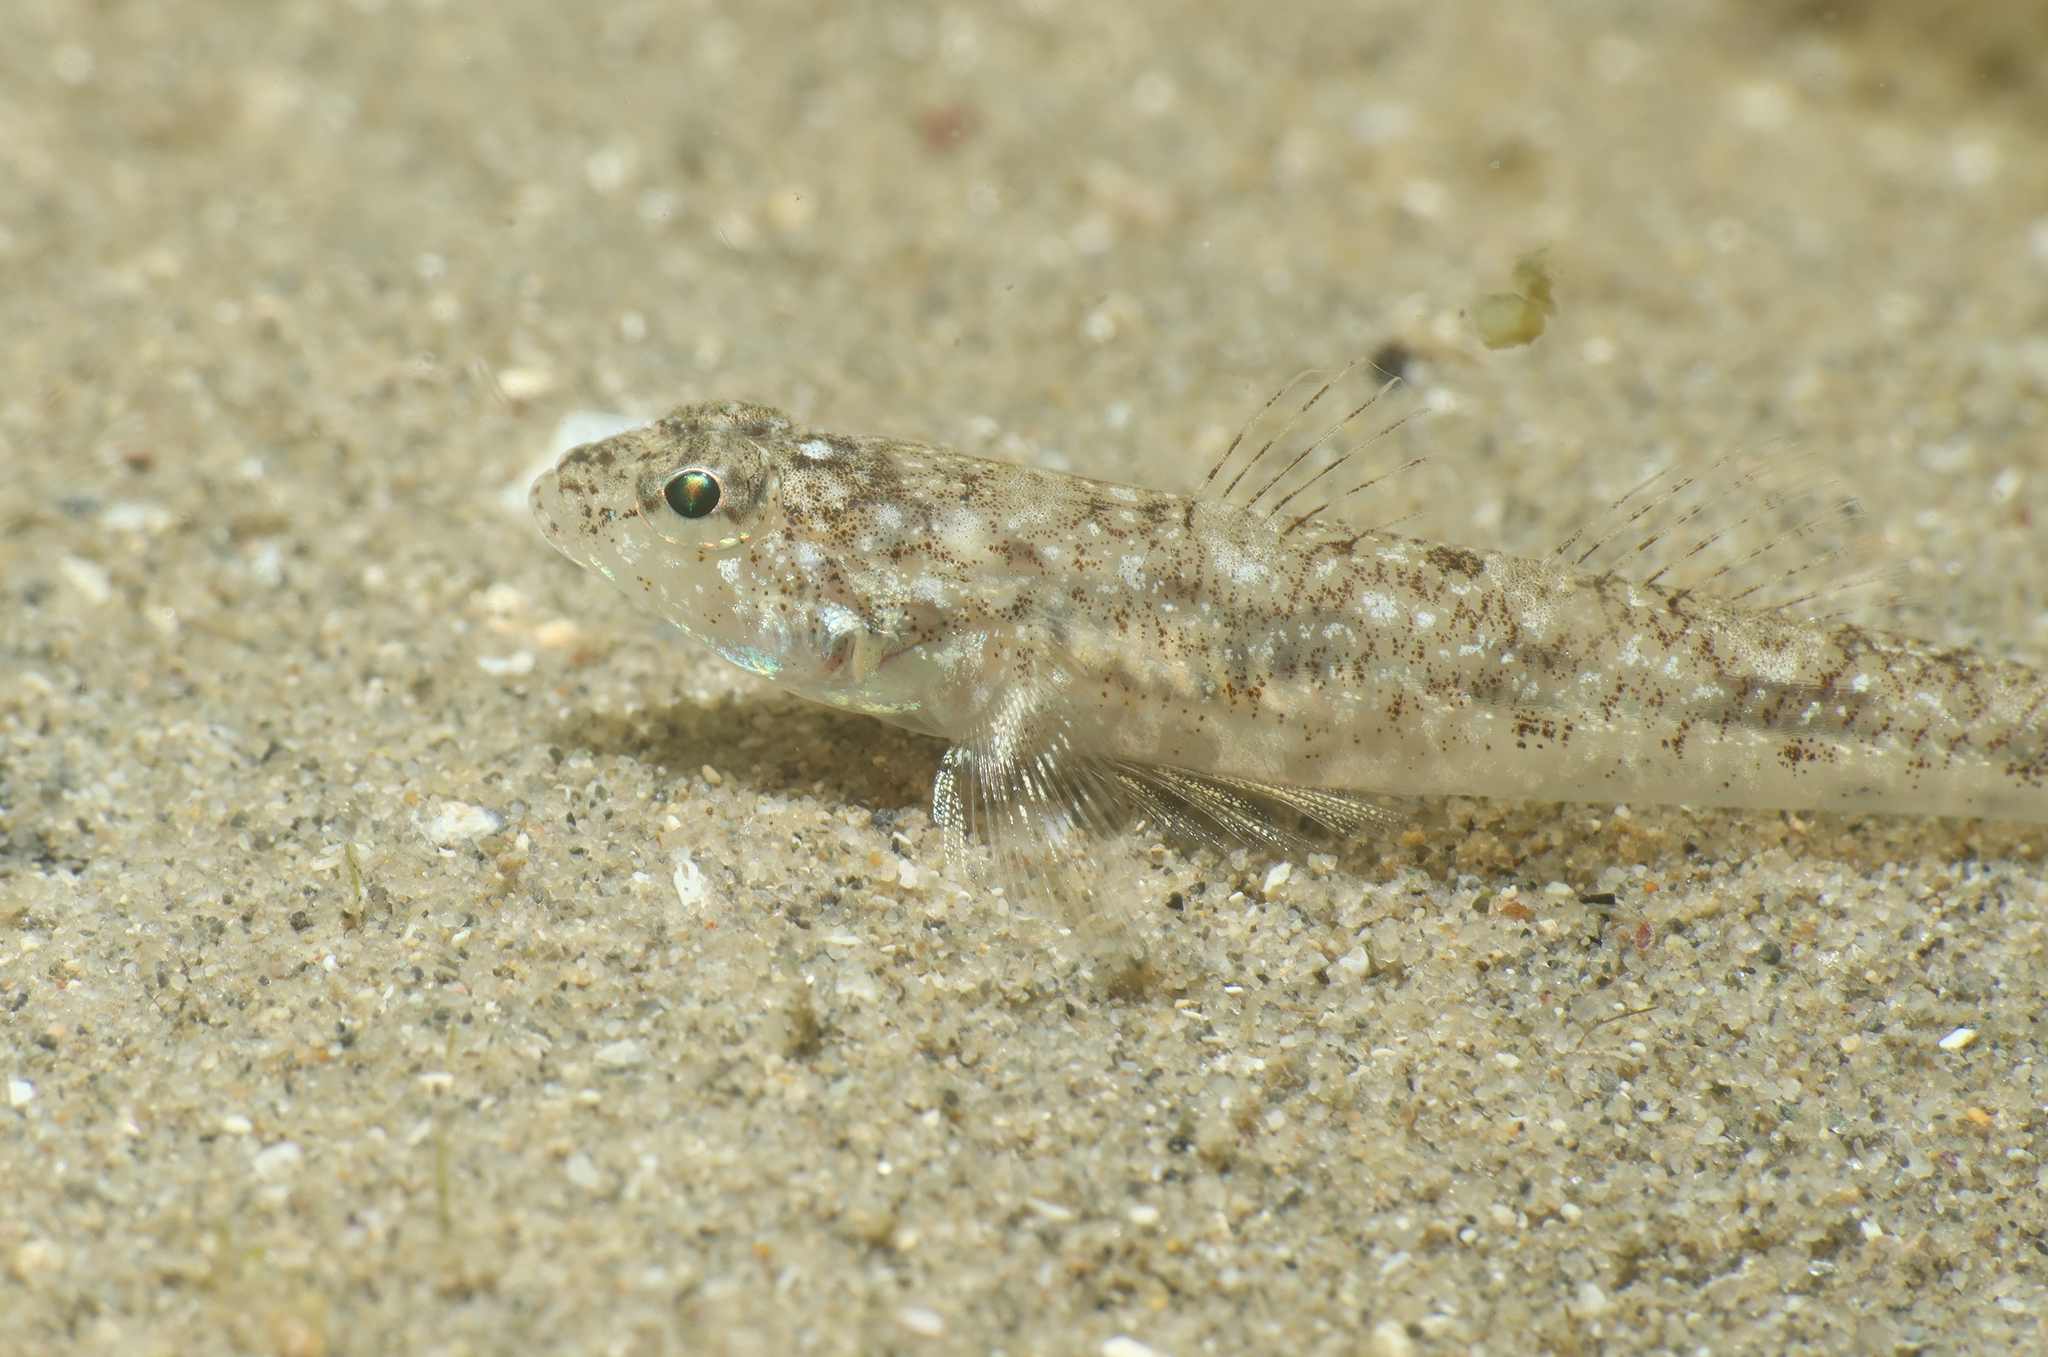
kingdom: Animalia
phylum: Chordata
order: Perciformes
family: Gobiidae
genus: Pomatoschistus
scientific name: Pomatoschistus marmoratus
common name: Marbled goby
